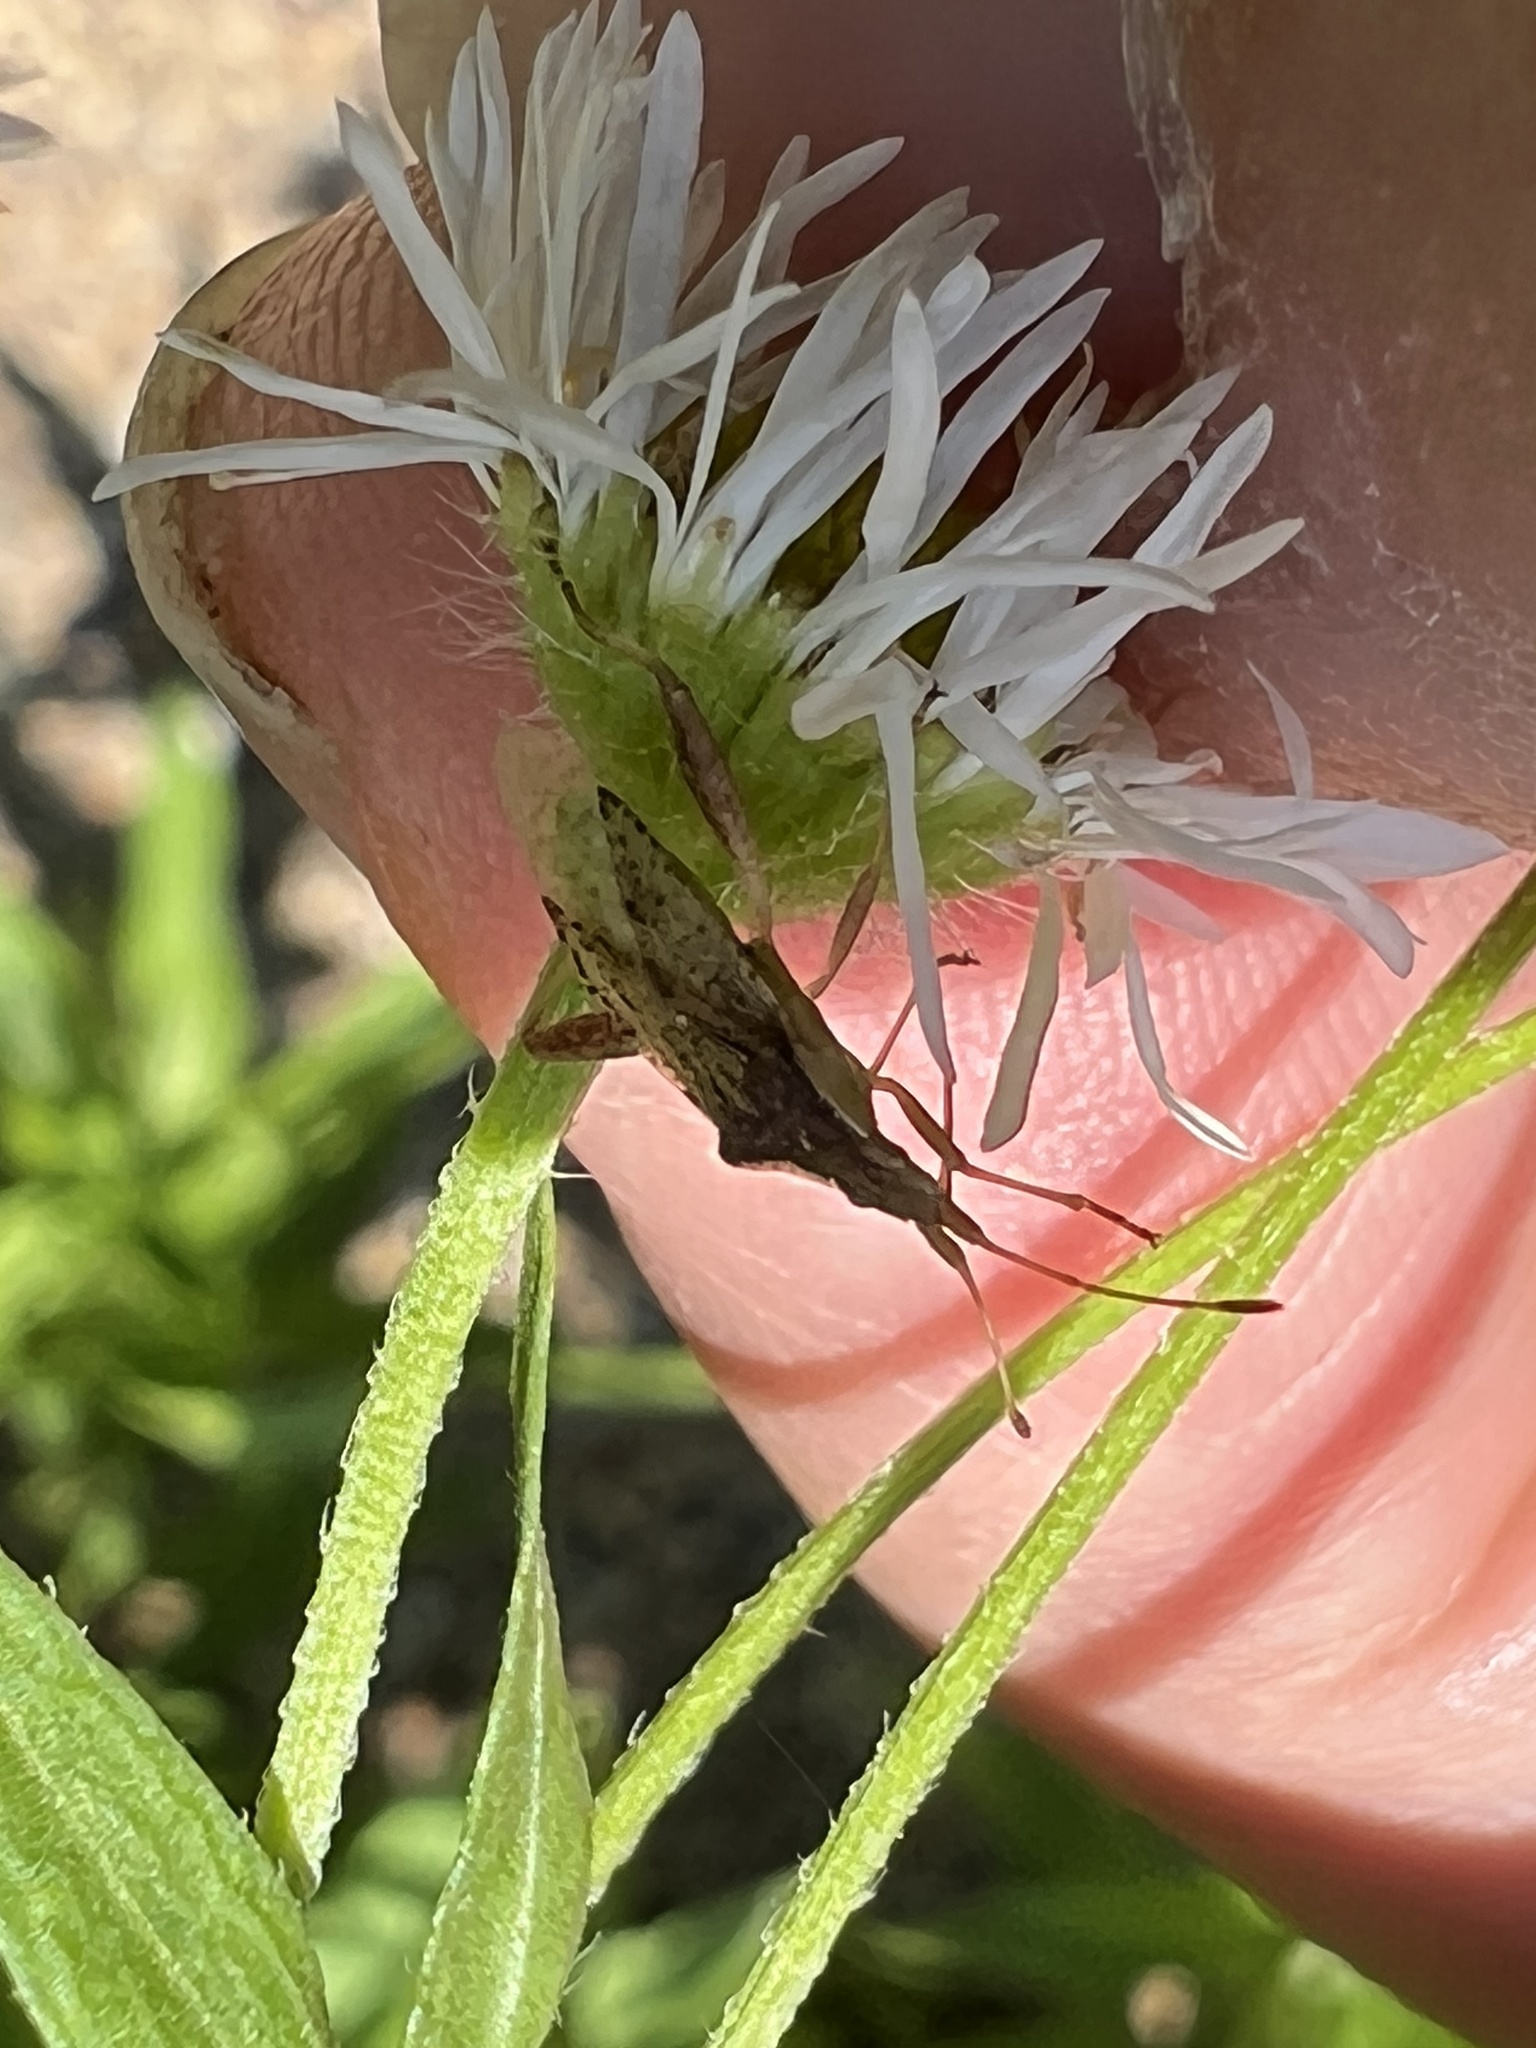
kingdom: Animalia
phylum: Arthropoda
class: Insecta
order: Hemiptera
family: Rhopalidae
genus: Harmostes
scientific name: Harmostes reflexulus
